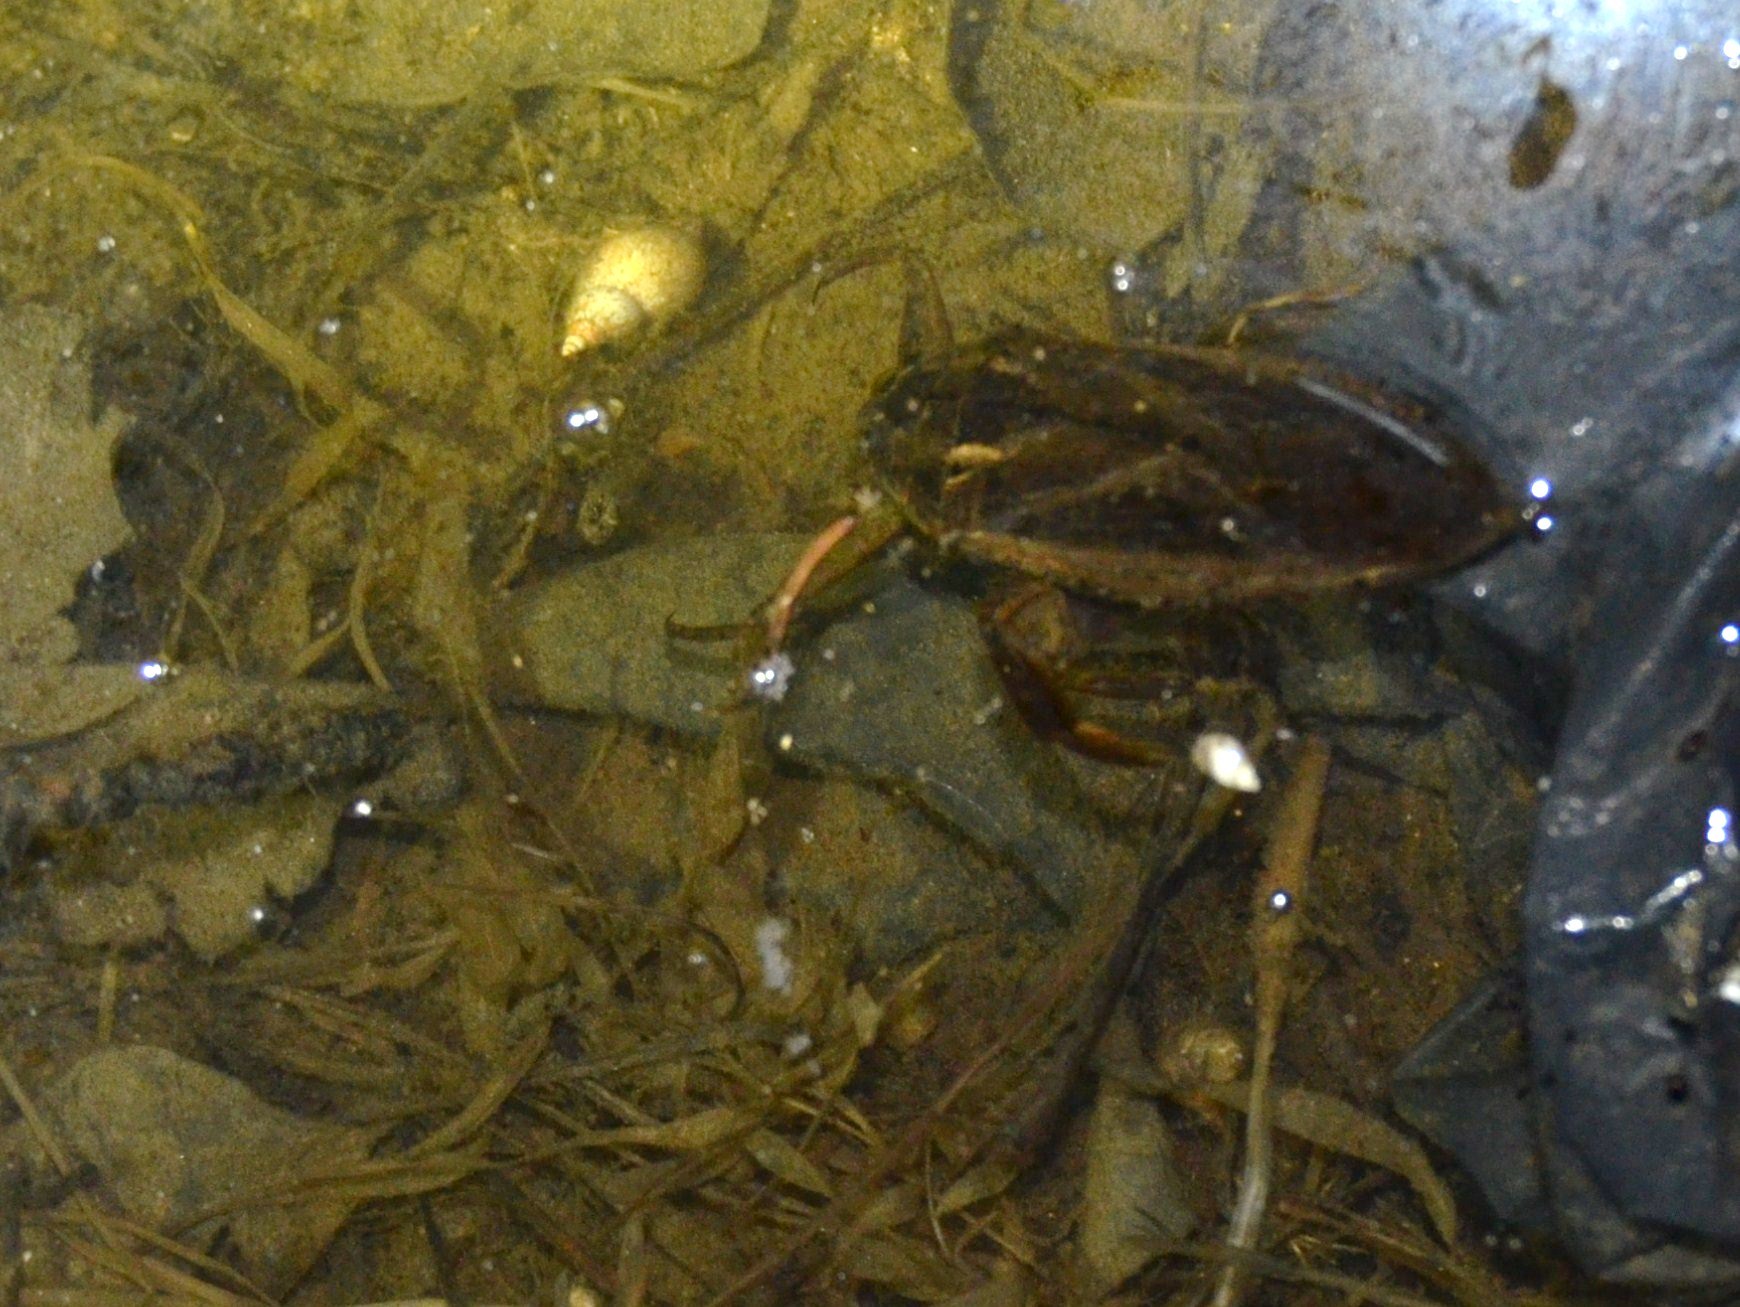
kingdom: Animalia
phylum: Arthropoda
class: Insecta
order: Hemiptera
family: Belostomatidae
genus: Lethocerus
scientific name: Lethocerus americanus
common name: Giant water bug
